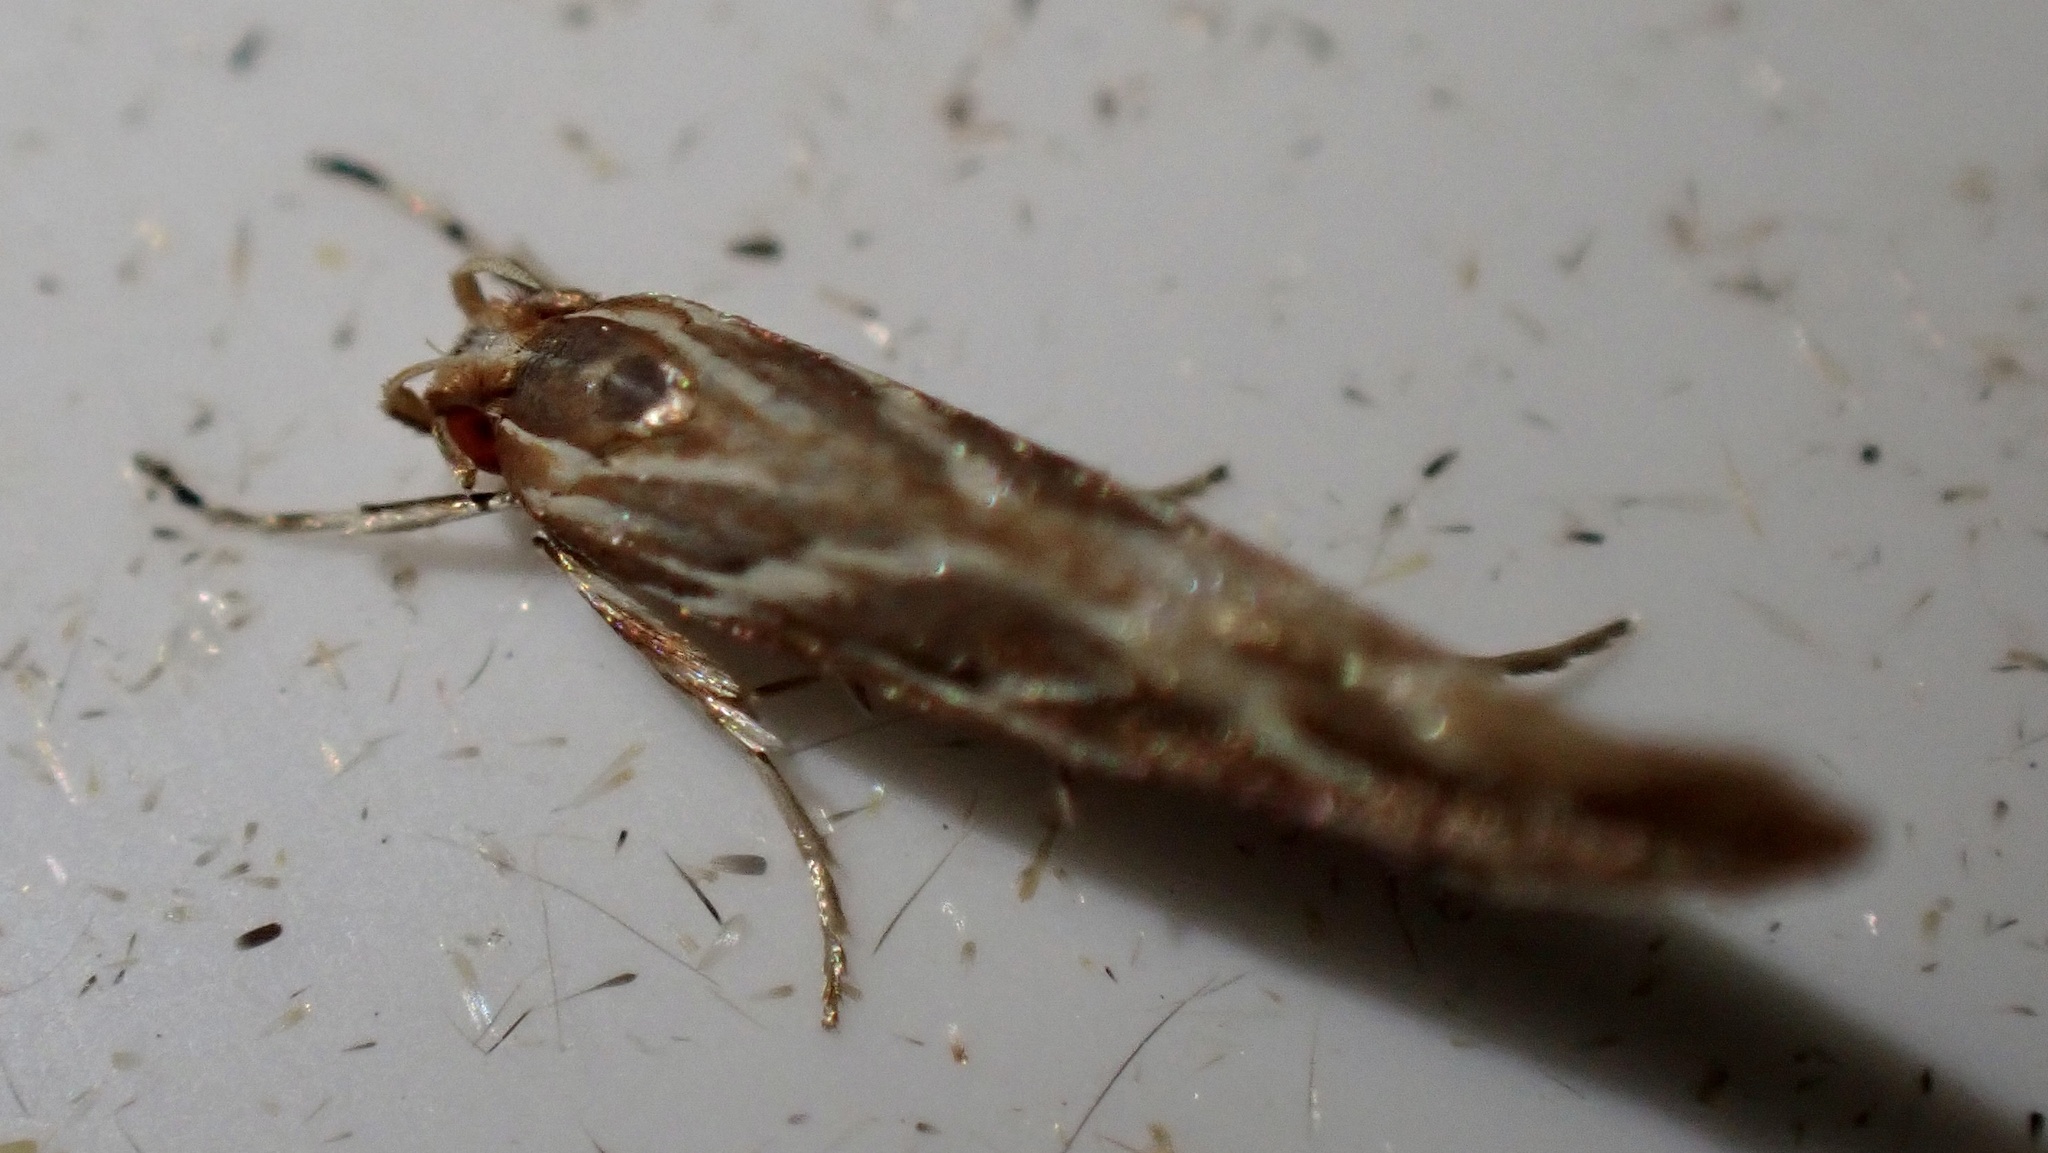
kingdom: Animalia
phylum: Arthropoda
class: Insecta
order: Lepidoptera
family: Cosmopterigidae
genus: Pyroderces
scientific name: Pyroderces argyrogrammos
